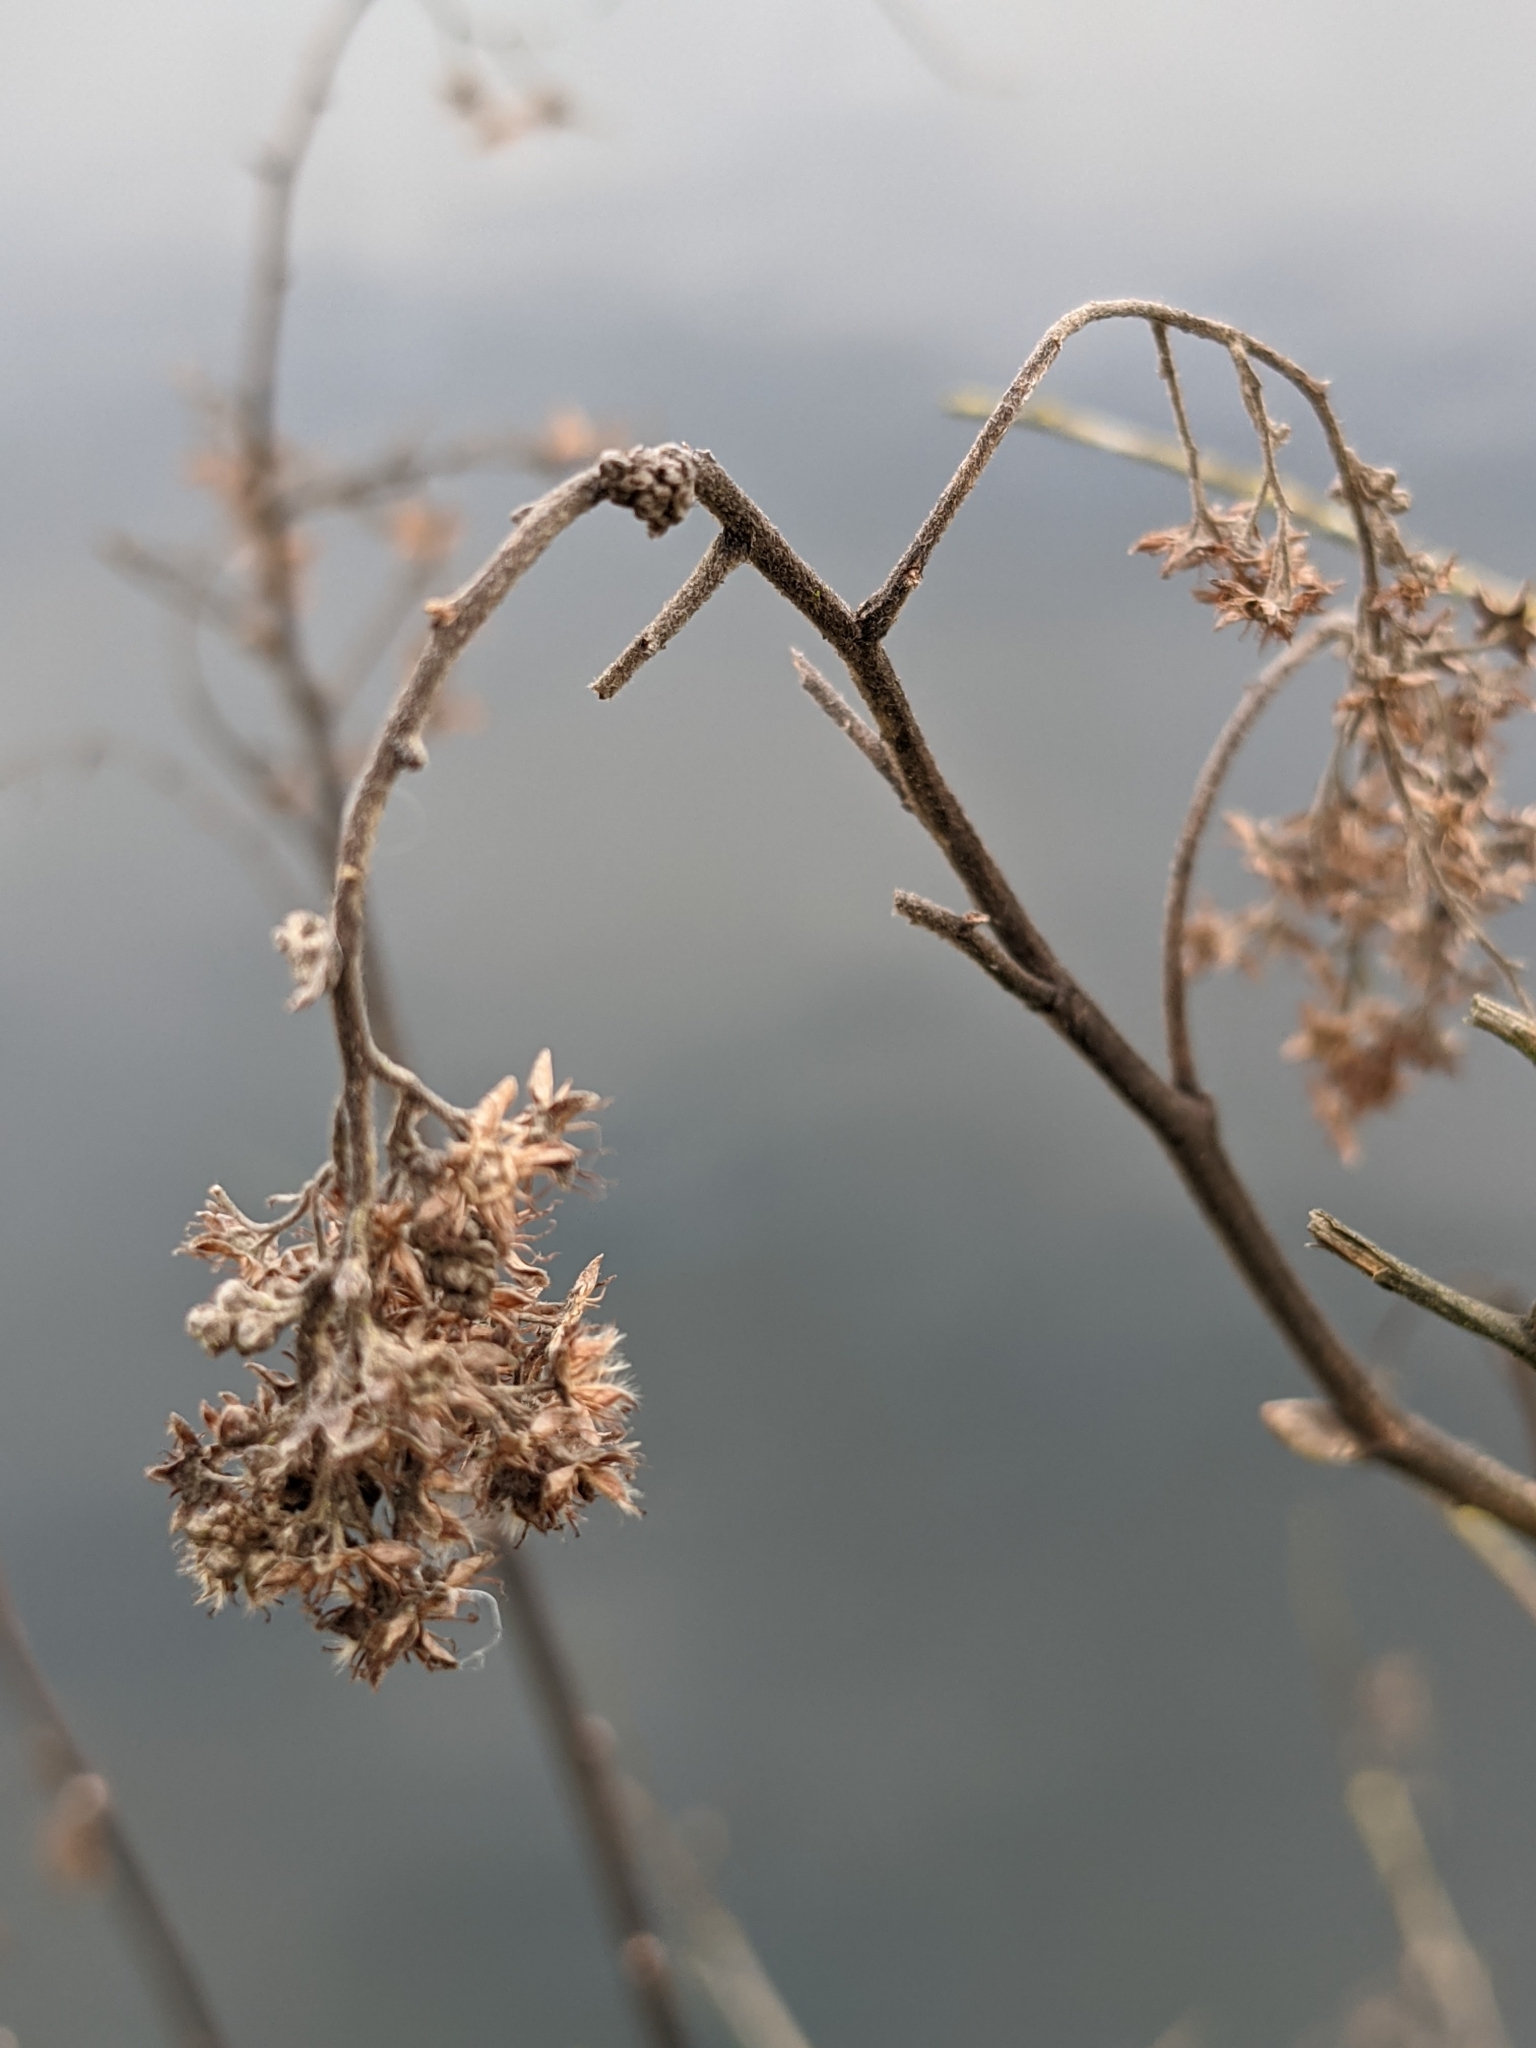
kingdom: Plantae
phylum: Tracheophyta
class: Magnoliopsida
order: Rosales
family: Rosaceae
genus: Holodiscus
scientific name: Holodiscus discolor
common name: Oceanspray
